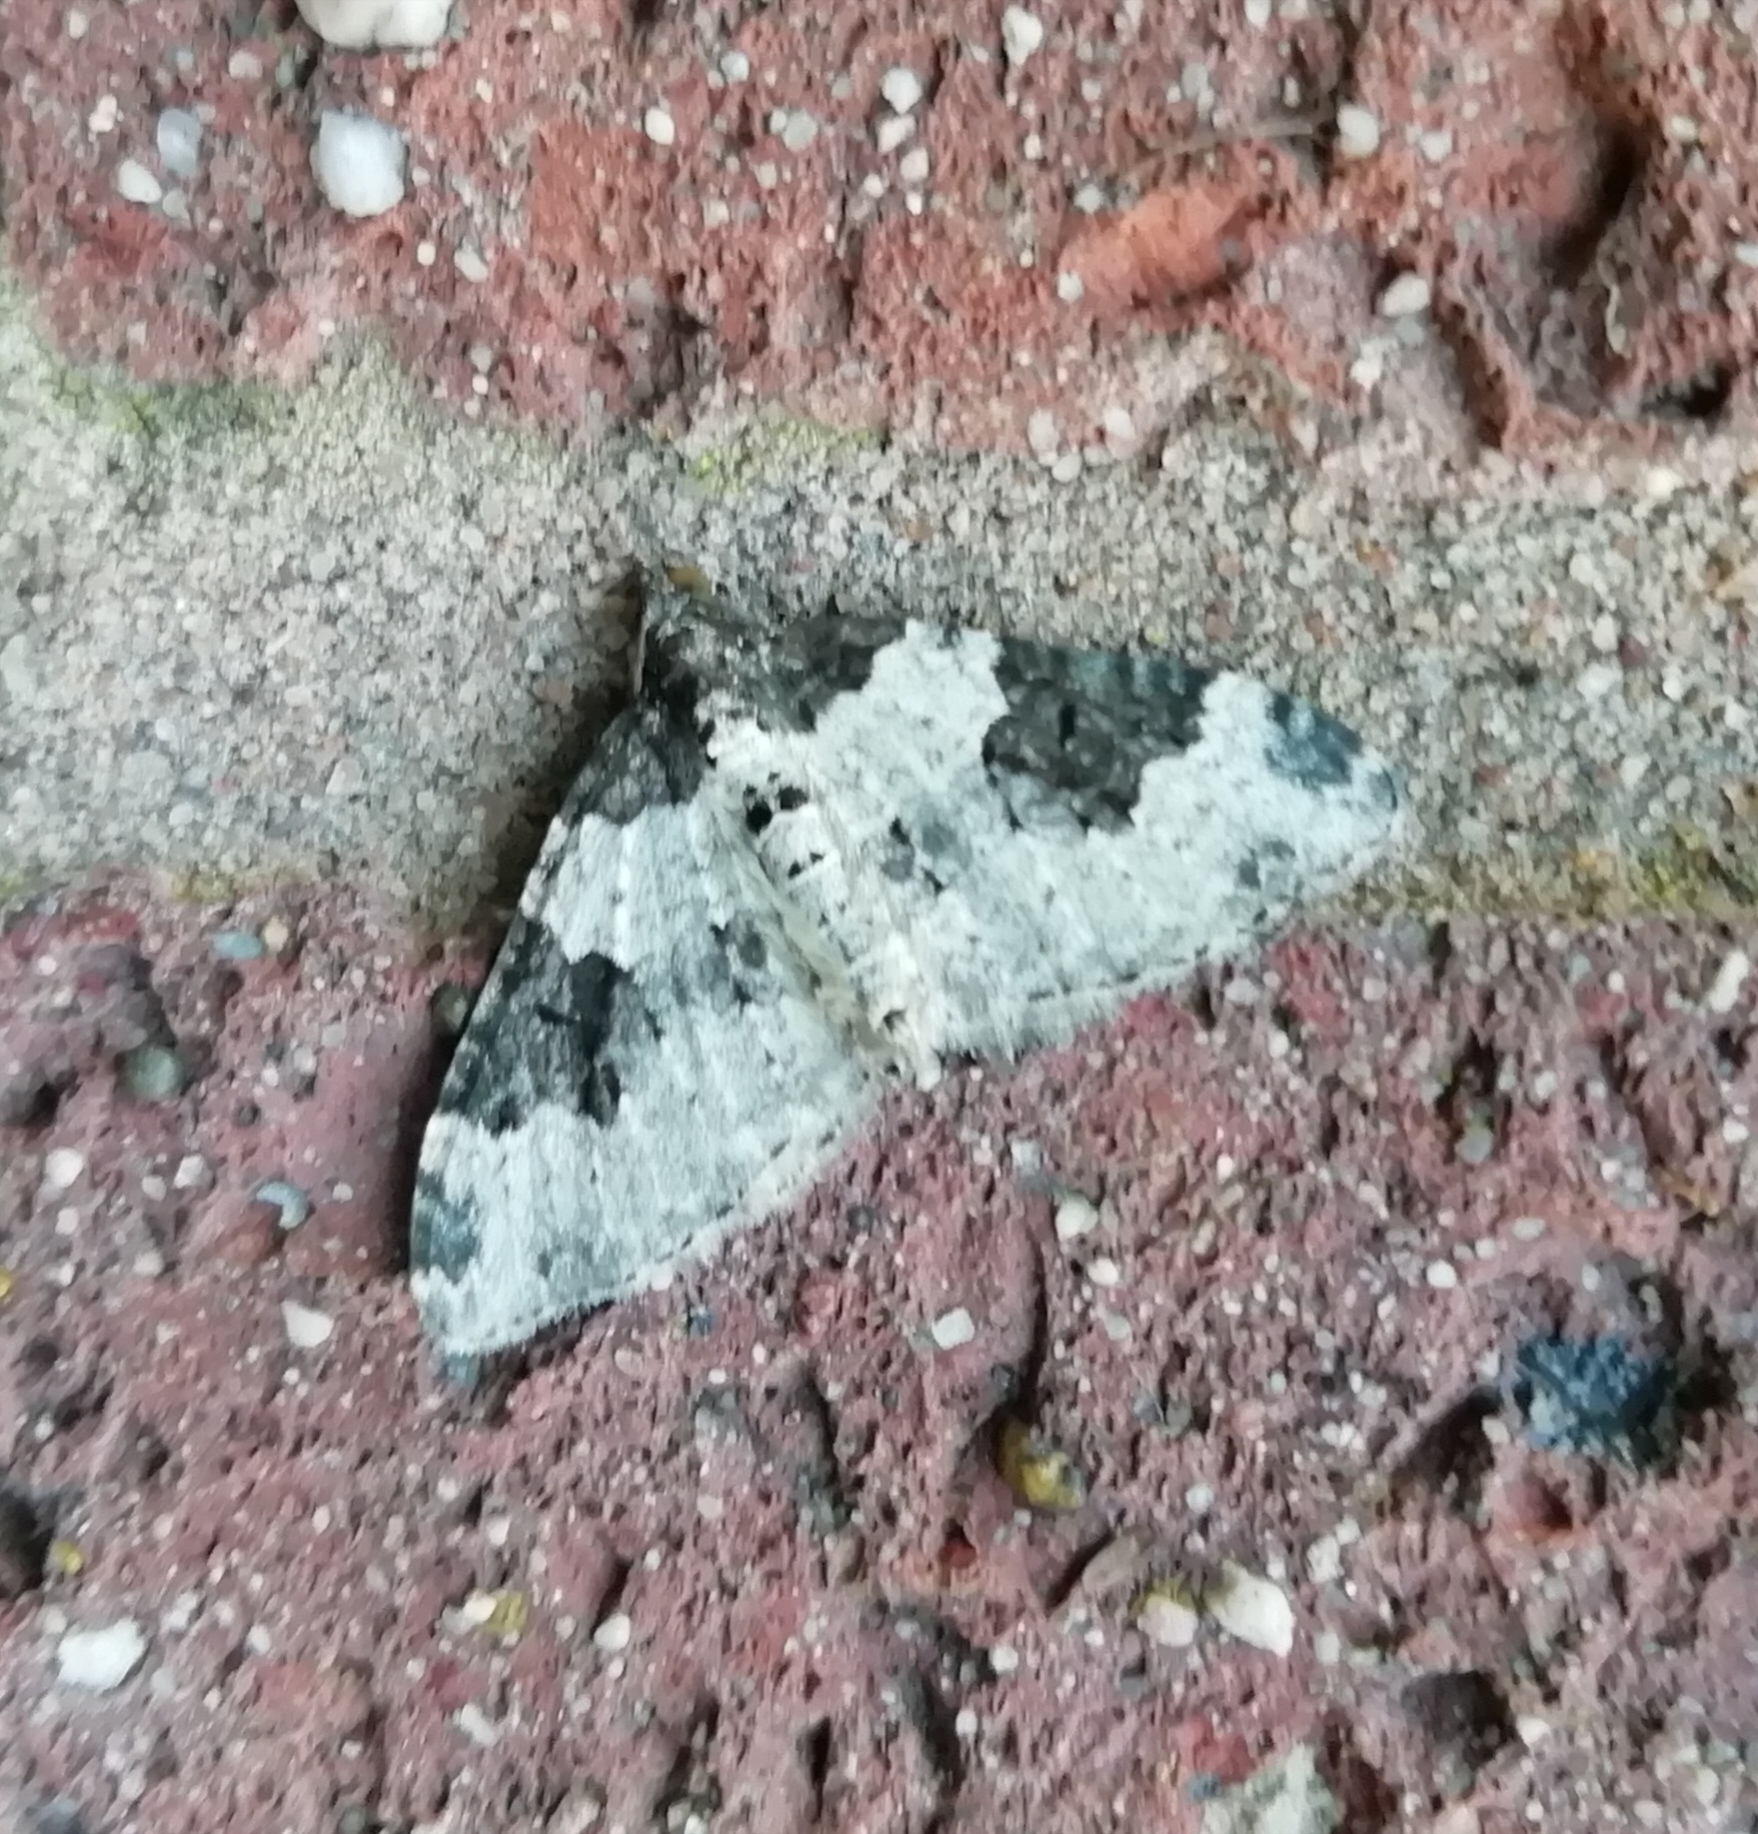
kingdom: Animalia
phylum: Arthropoda
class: Insecta
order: Lepidoptera
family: Geometridae
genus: Xanthorhoe
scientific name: Xanthorhoe fluctuata
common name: Garden carpet
